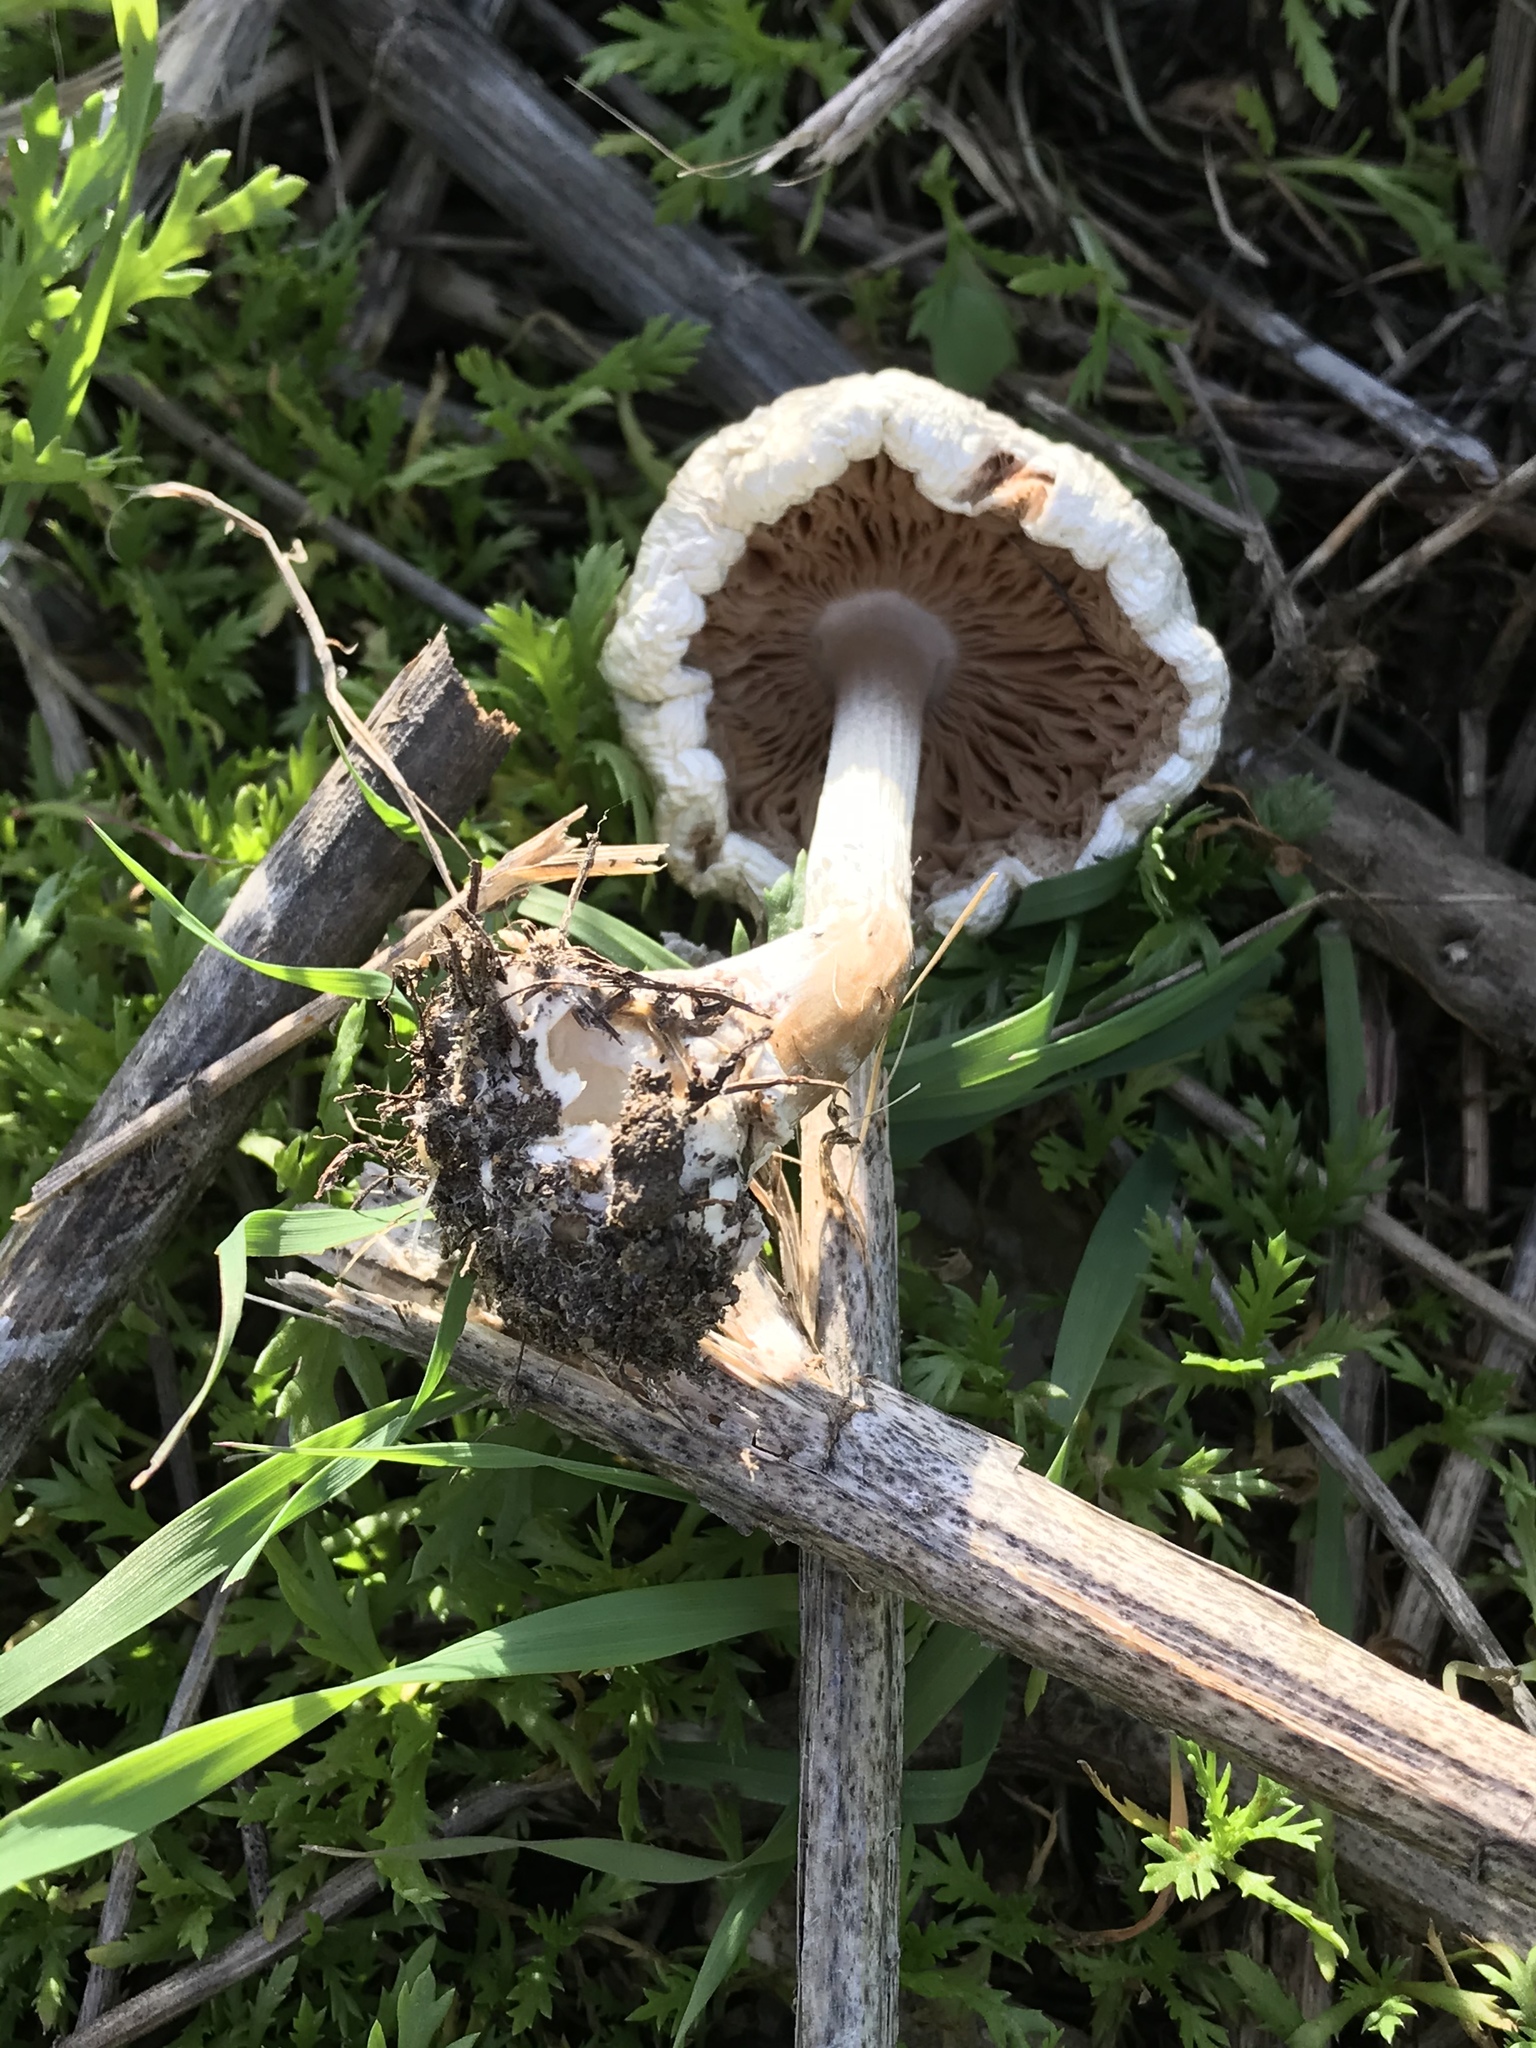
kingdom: Fungi
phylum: Basidiomycota
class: Agaricomycetes
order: Agaricales
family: Pluteaceae
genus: Volvopluteus
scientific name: Volvopluteus gloiocephalus
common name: Stubble rosegill
